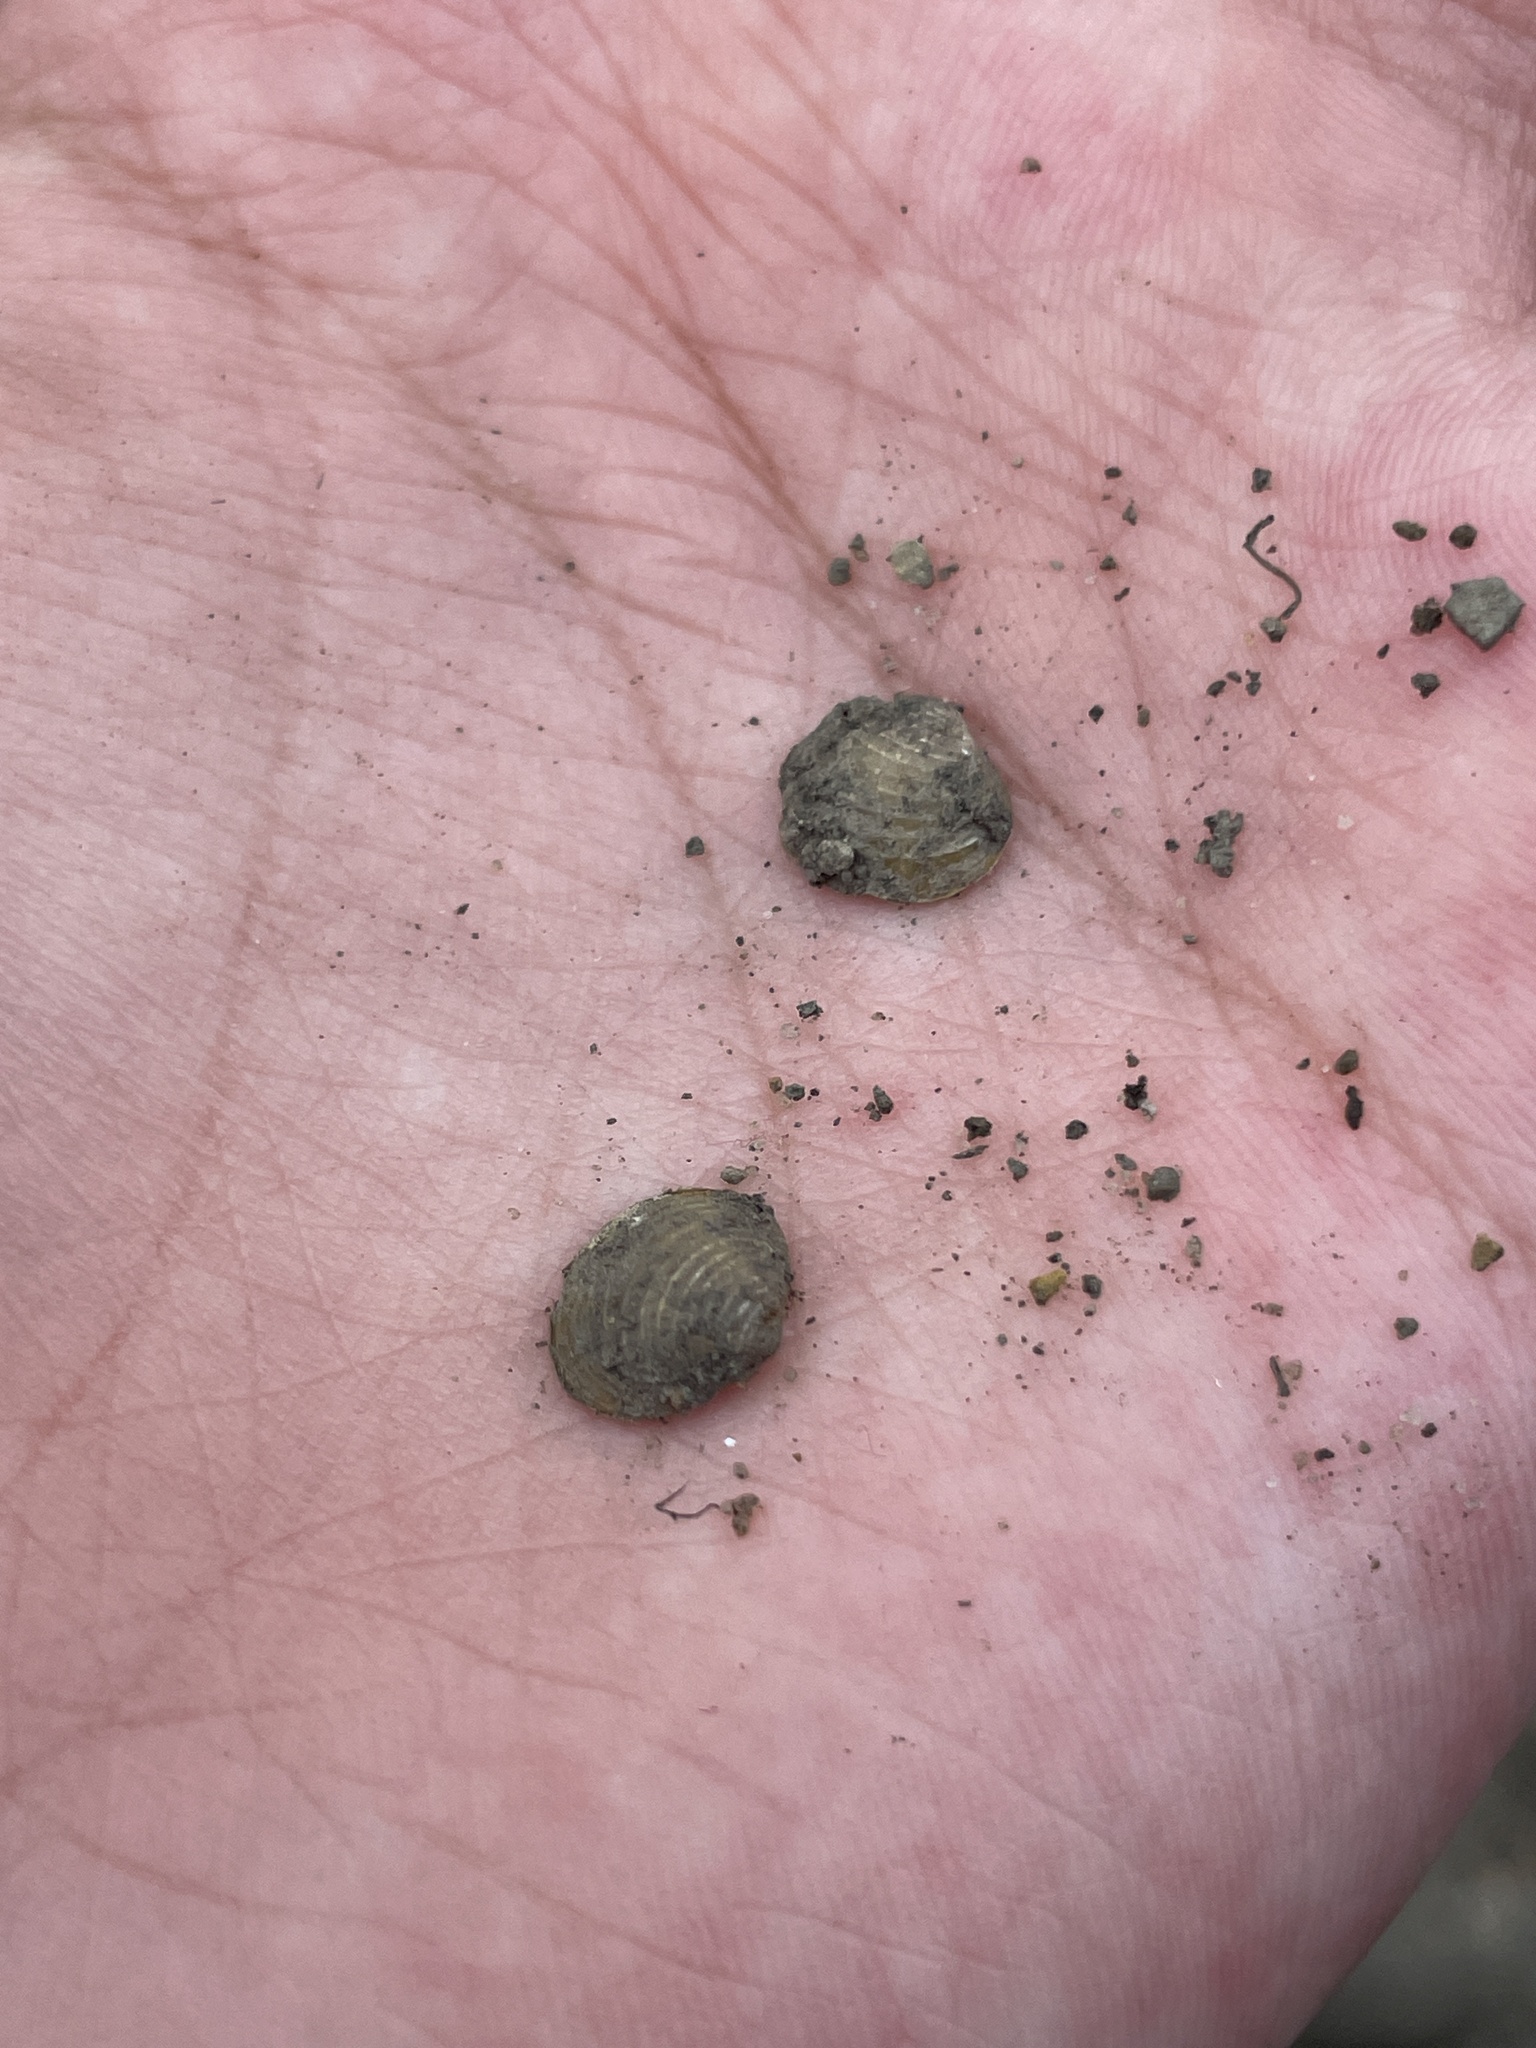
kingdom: Animalia
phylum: Mollusca
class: Bivalvia
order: Venerida
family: Cyrenidae
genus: Corbicula
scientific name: Corbicula fluminea
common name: Asian clam
